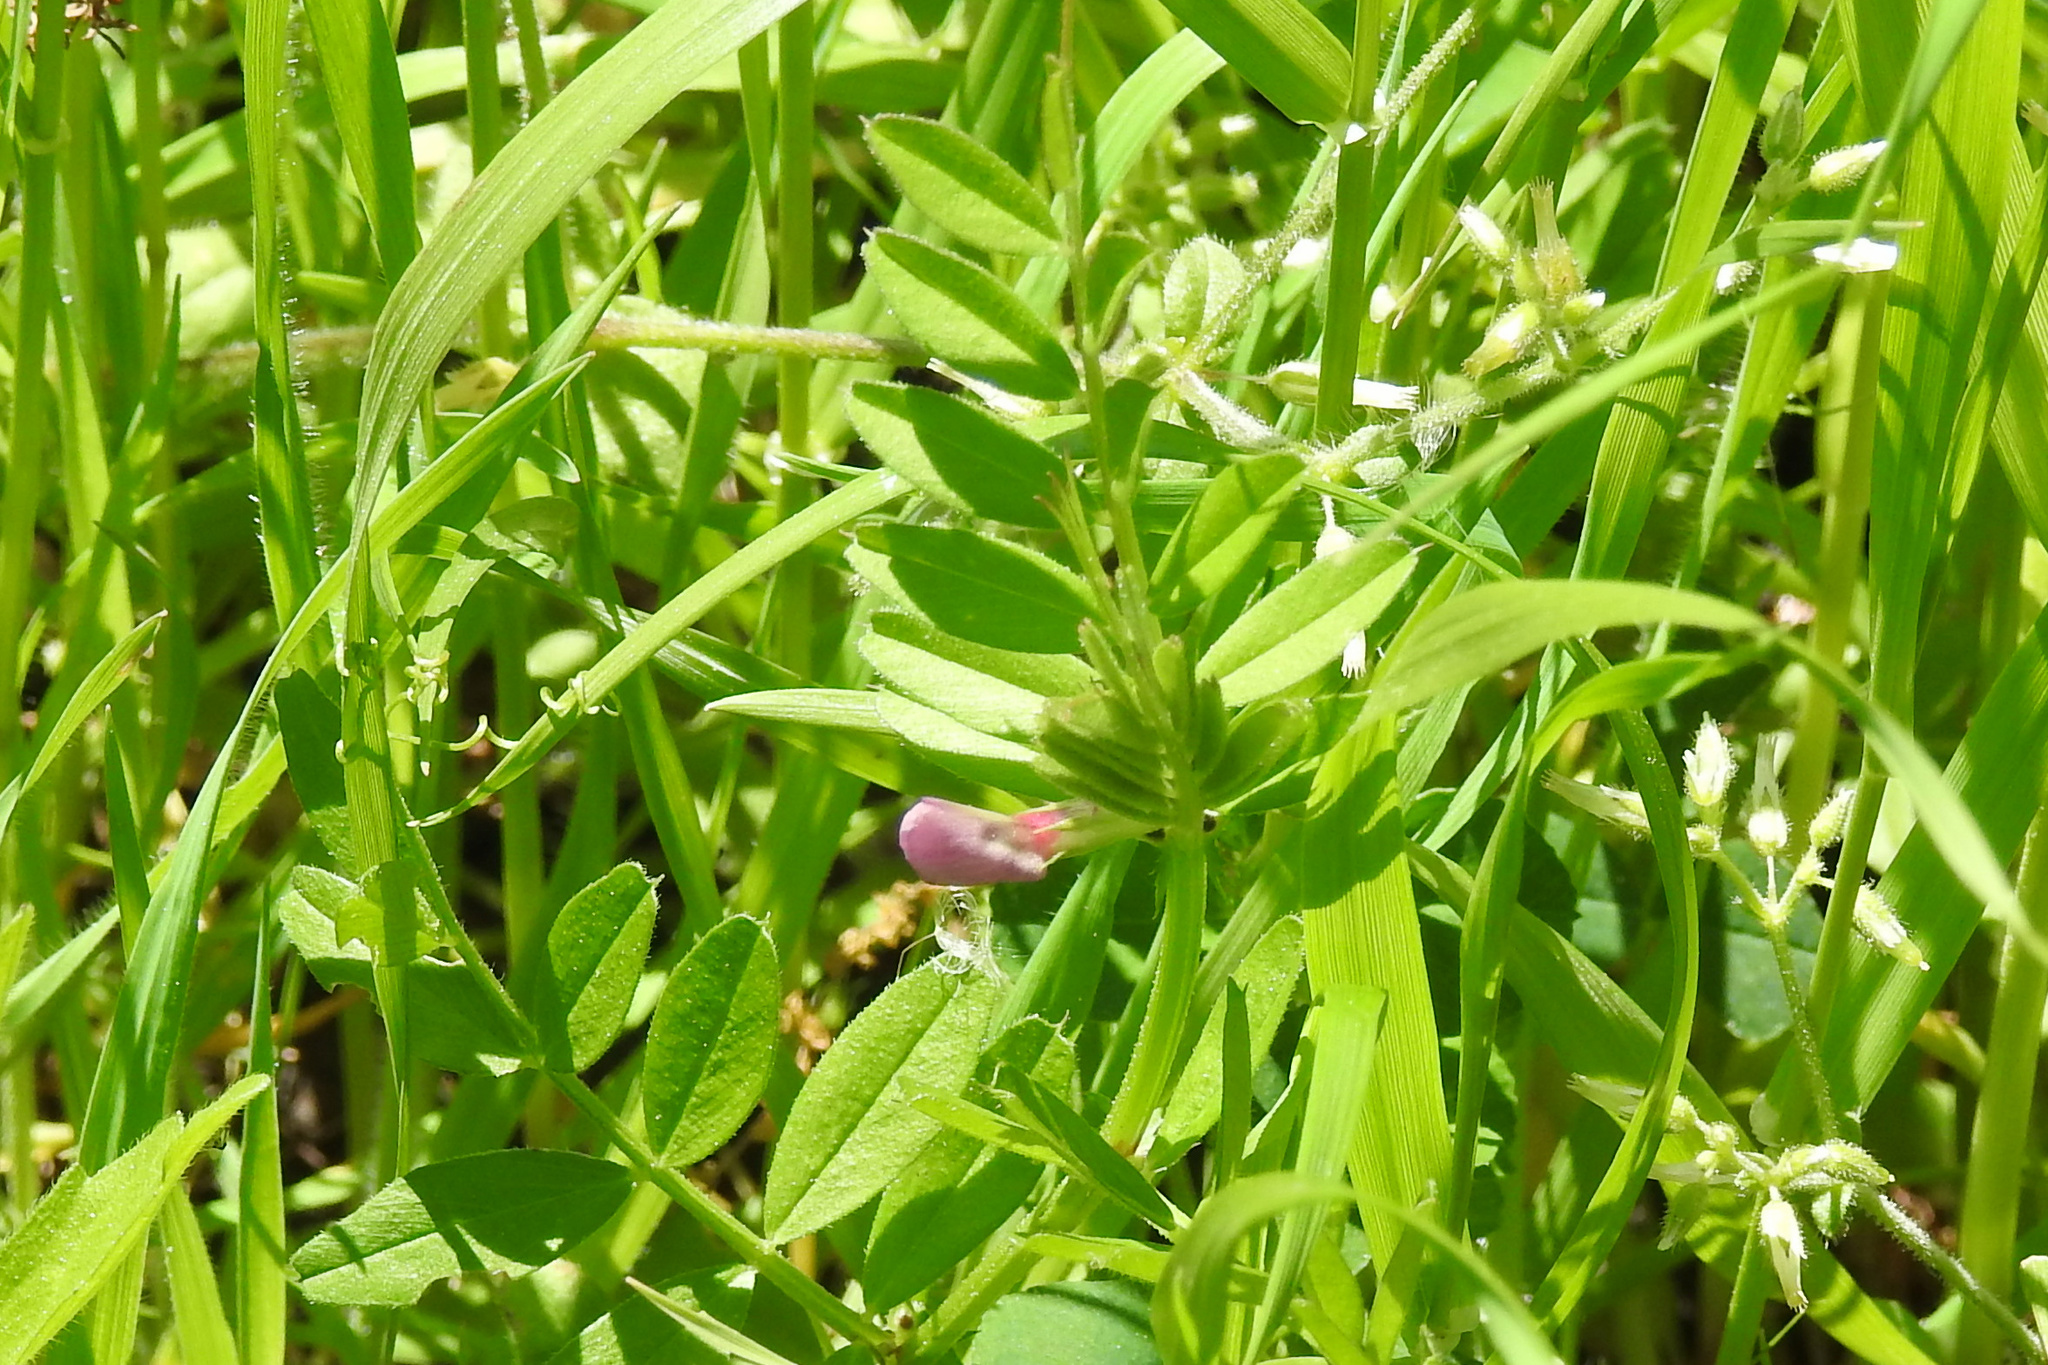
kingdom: Plantae
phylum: Tracheophyta
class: Magnoliopsida
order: Fabales
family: Fabaceae
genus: Vicia
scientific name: Vicia sativa
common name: Garden vetch
